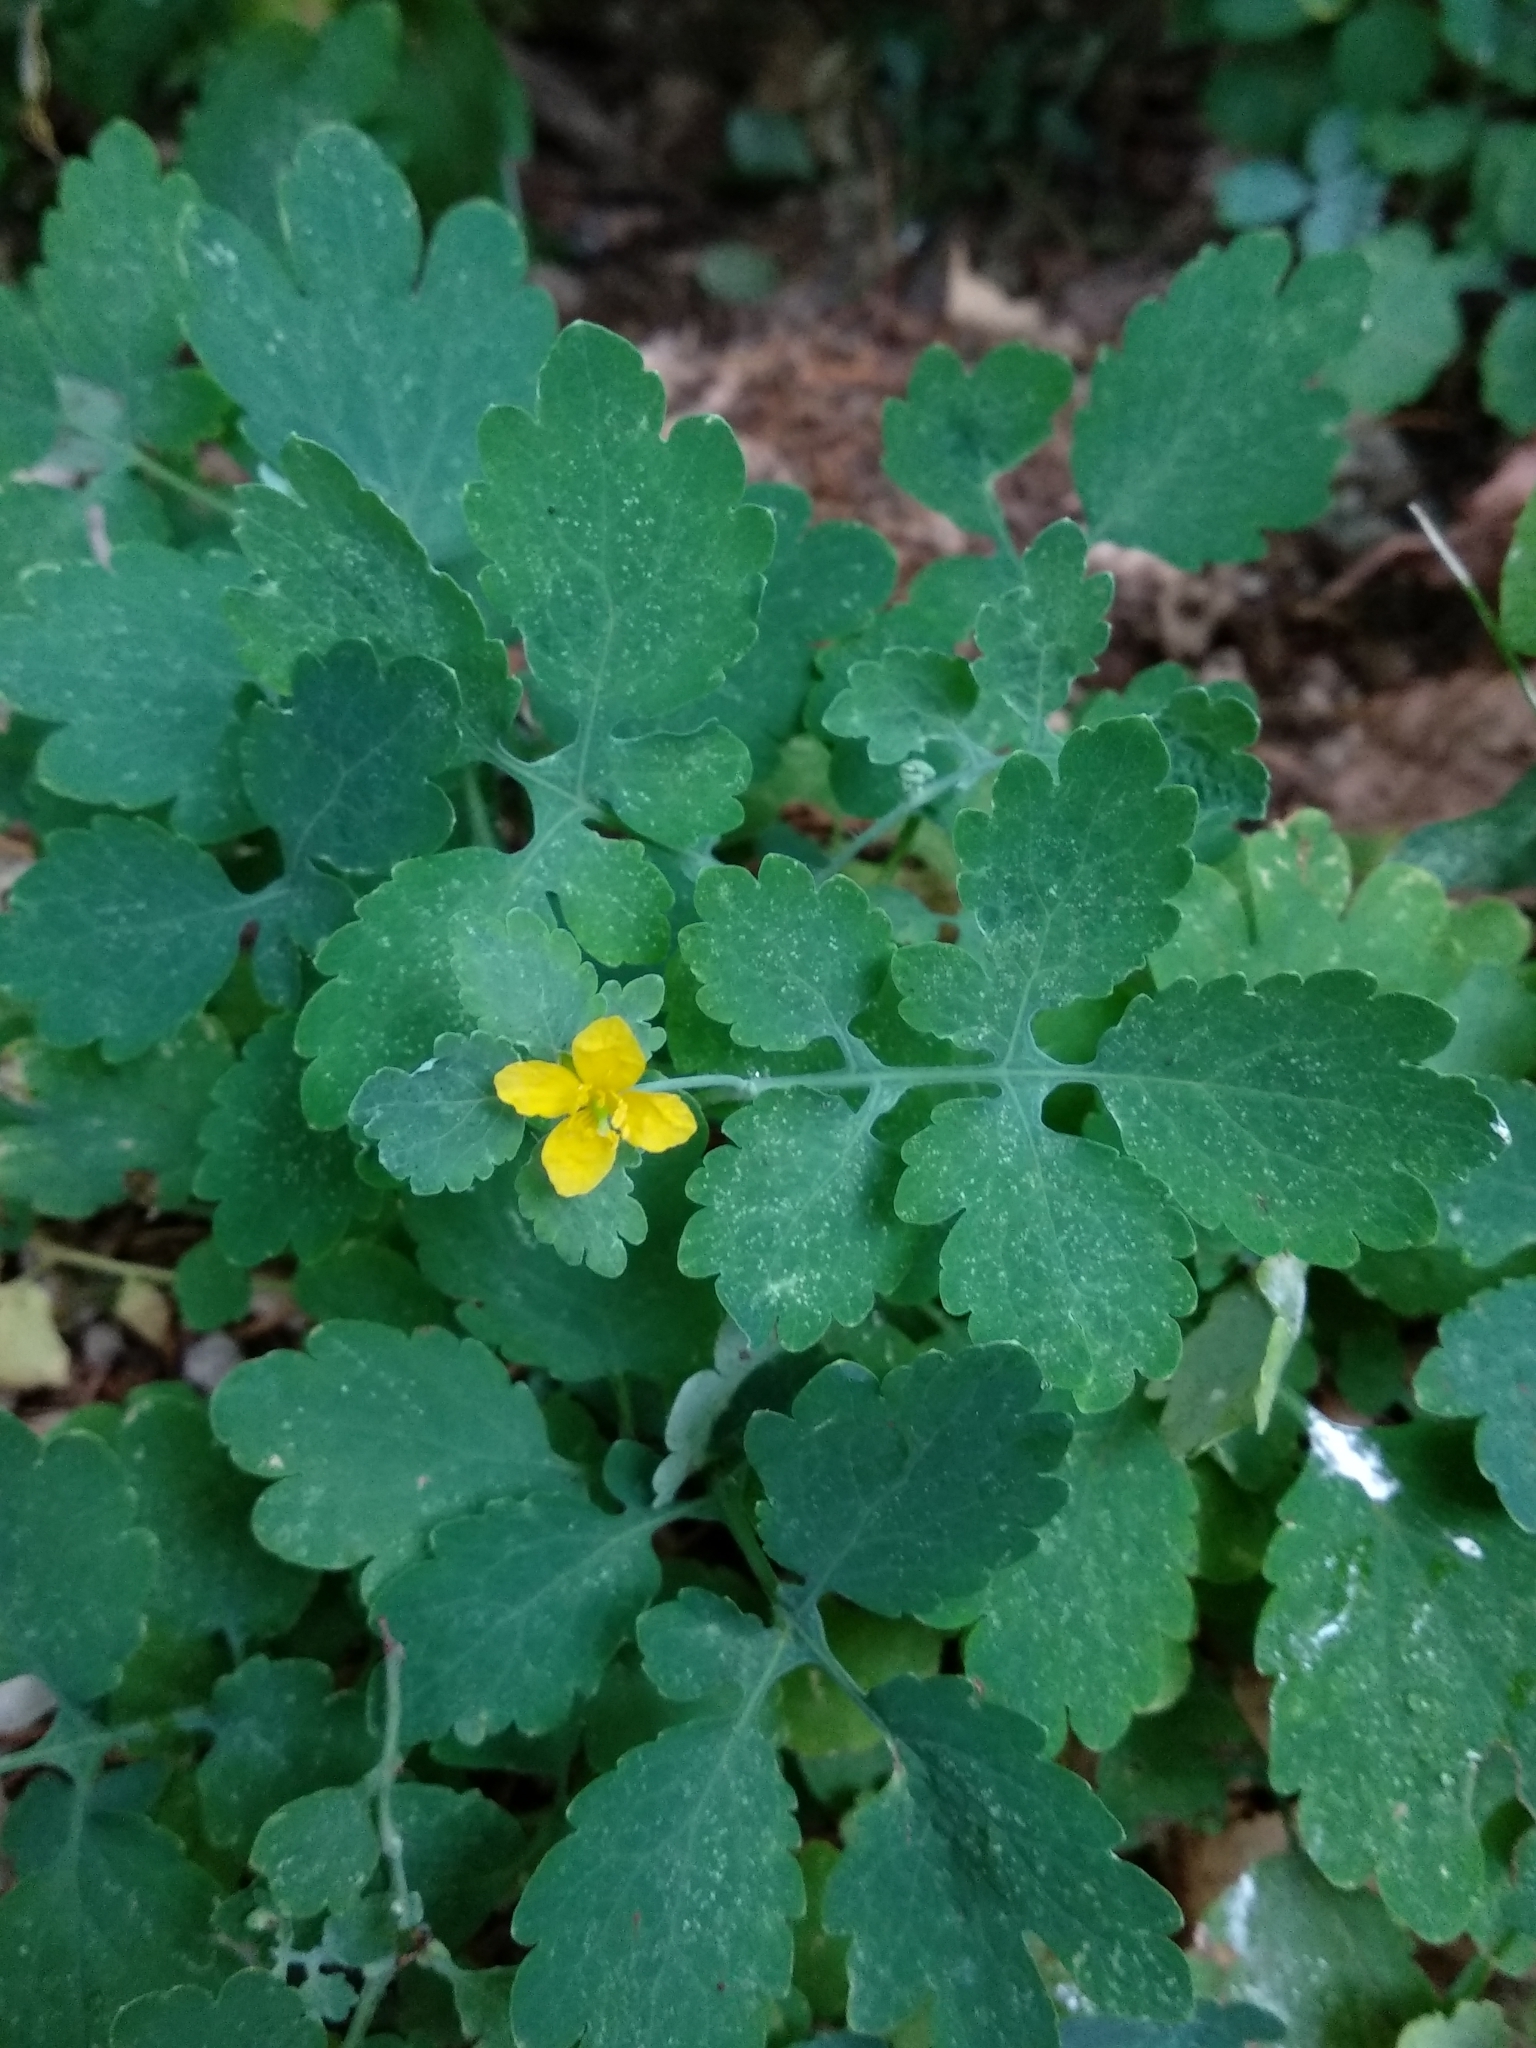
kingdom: Plantae
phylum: Tracheophyta
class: Magnoliopsida
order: Ranunculales
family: Papaveraceae
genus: Chelidonium
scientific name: Chelidonium majus
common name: Greater celandine
